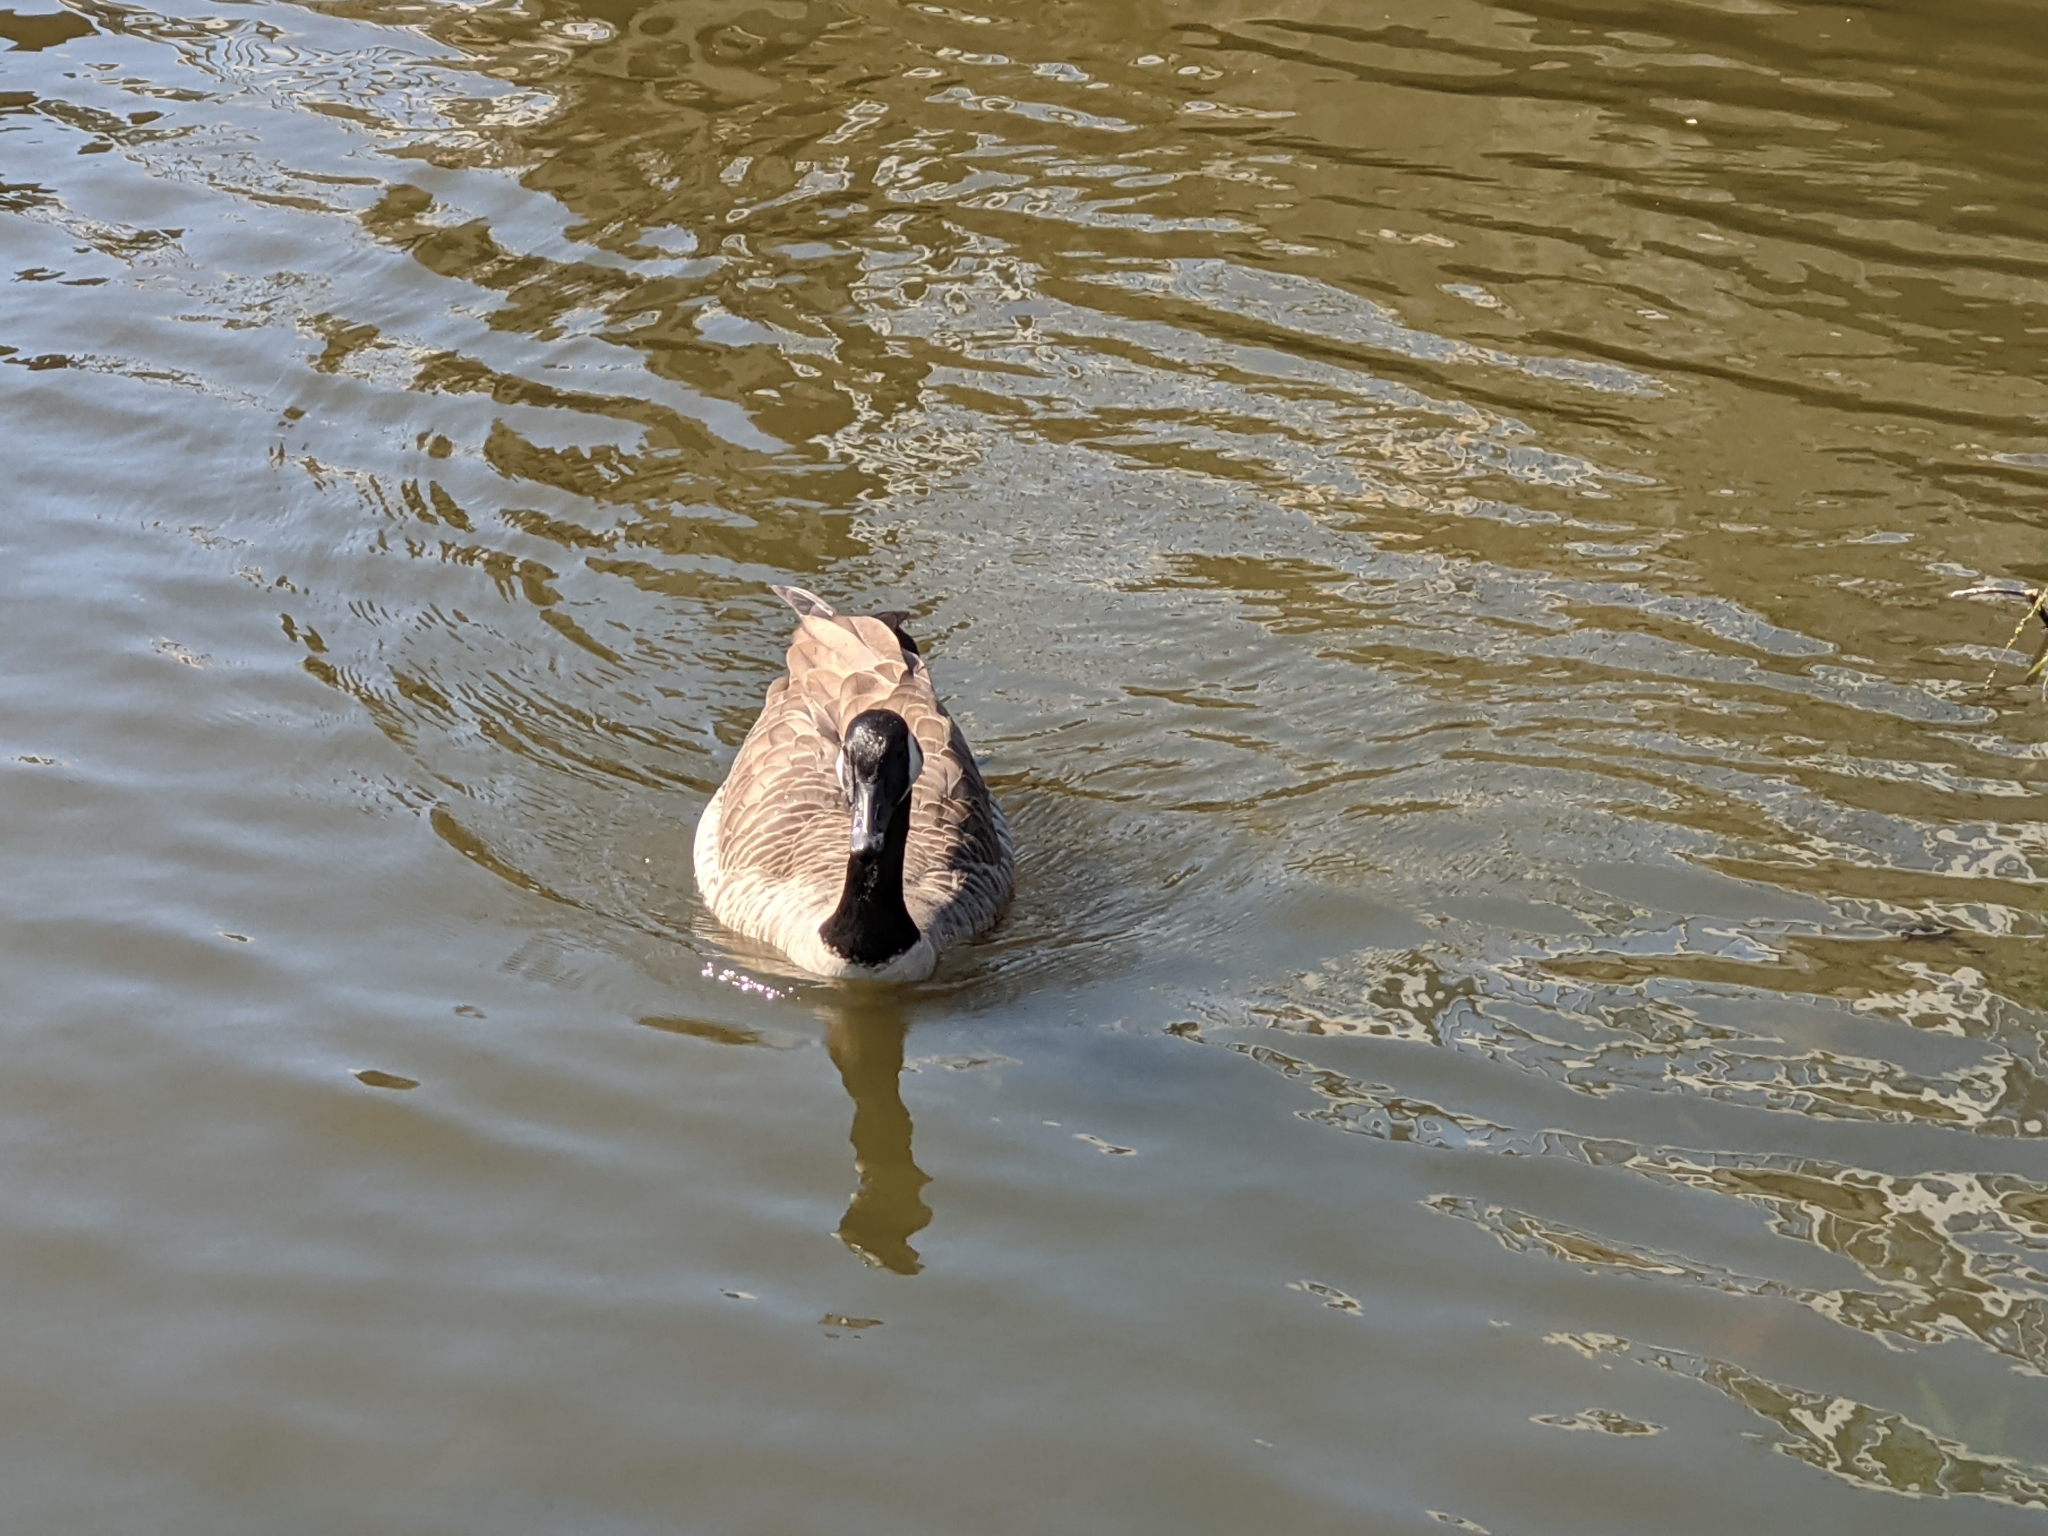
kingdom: Animalia
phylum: Chordata
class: Aves
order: Anseriformes
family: Anatidae
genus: Branta
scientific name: Branta canadensis
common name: Canada goose
